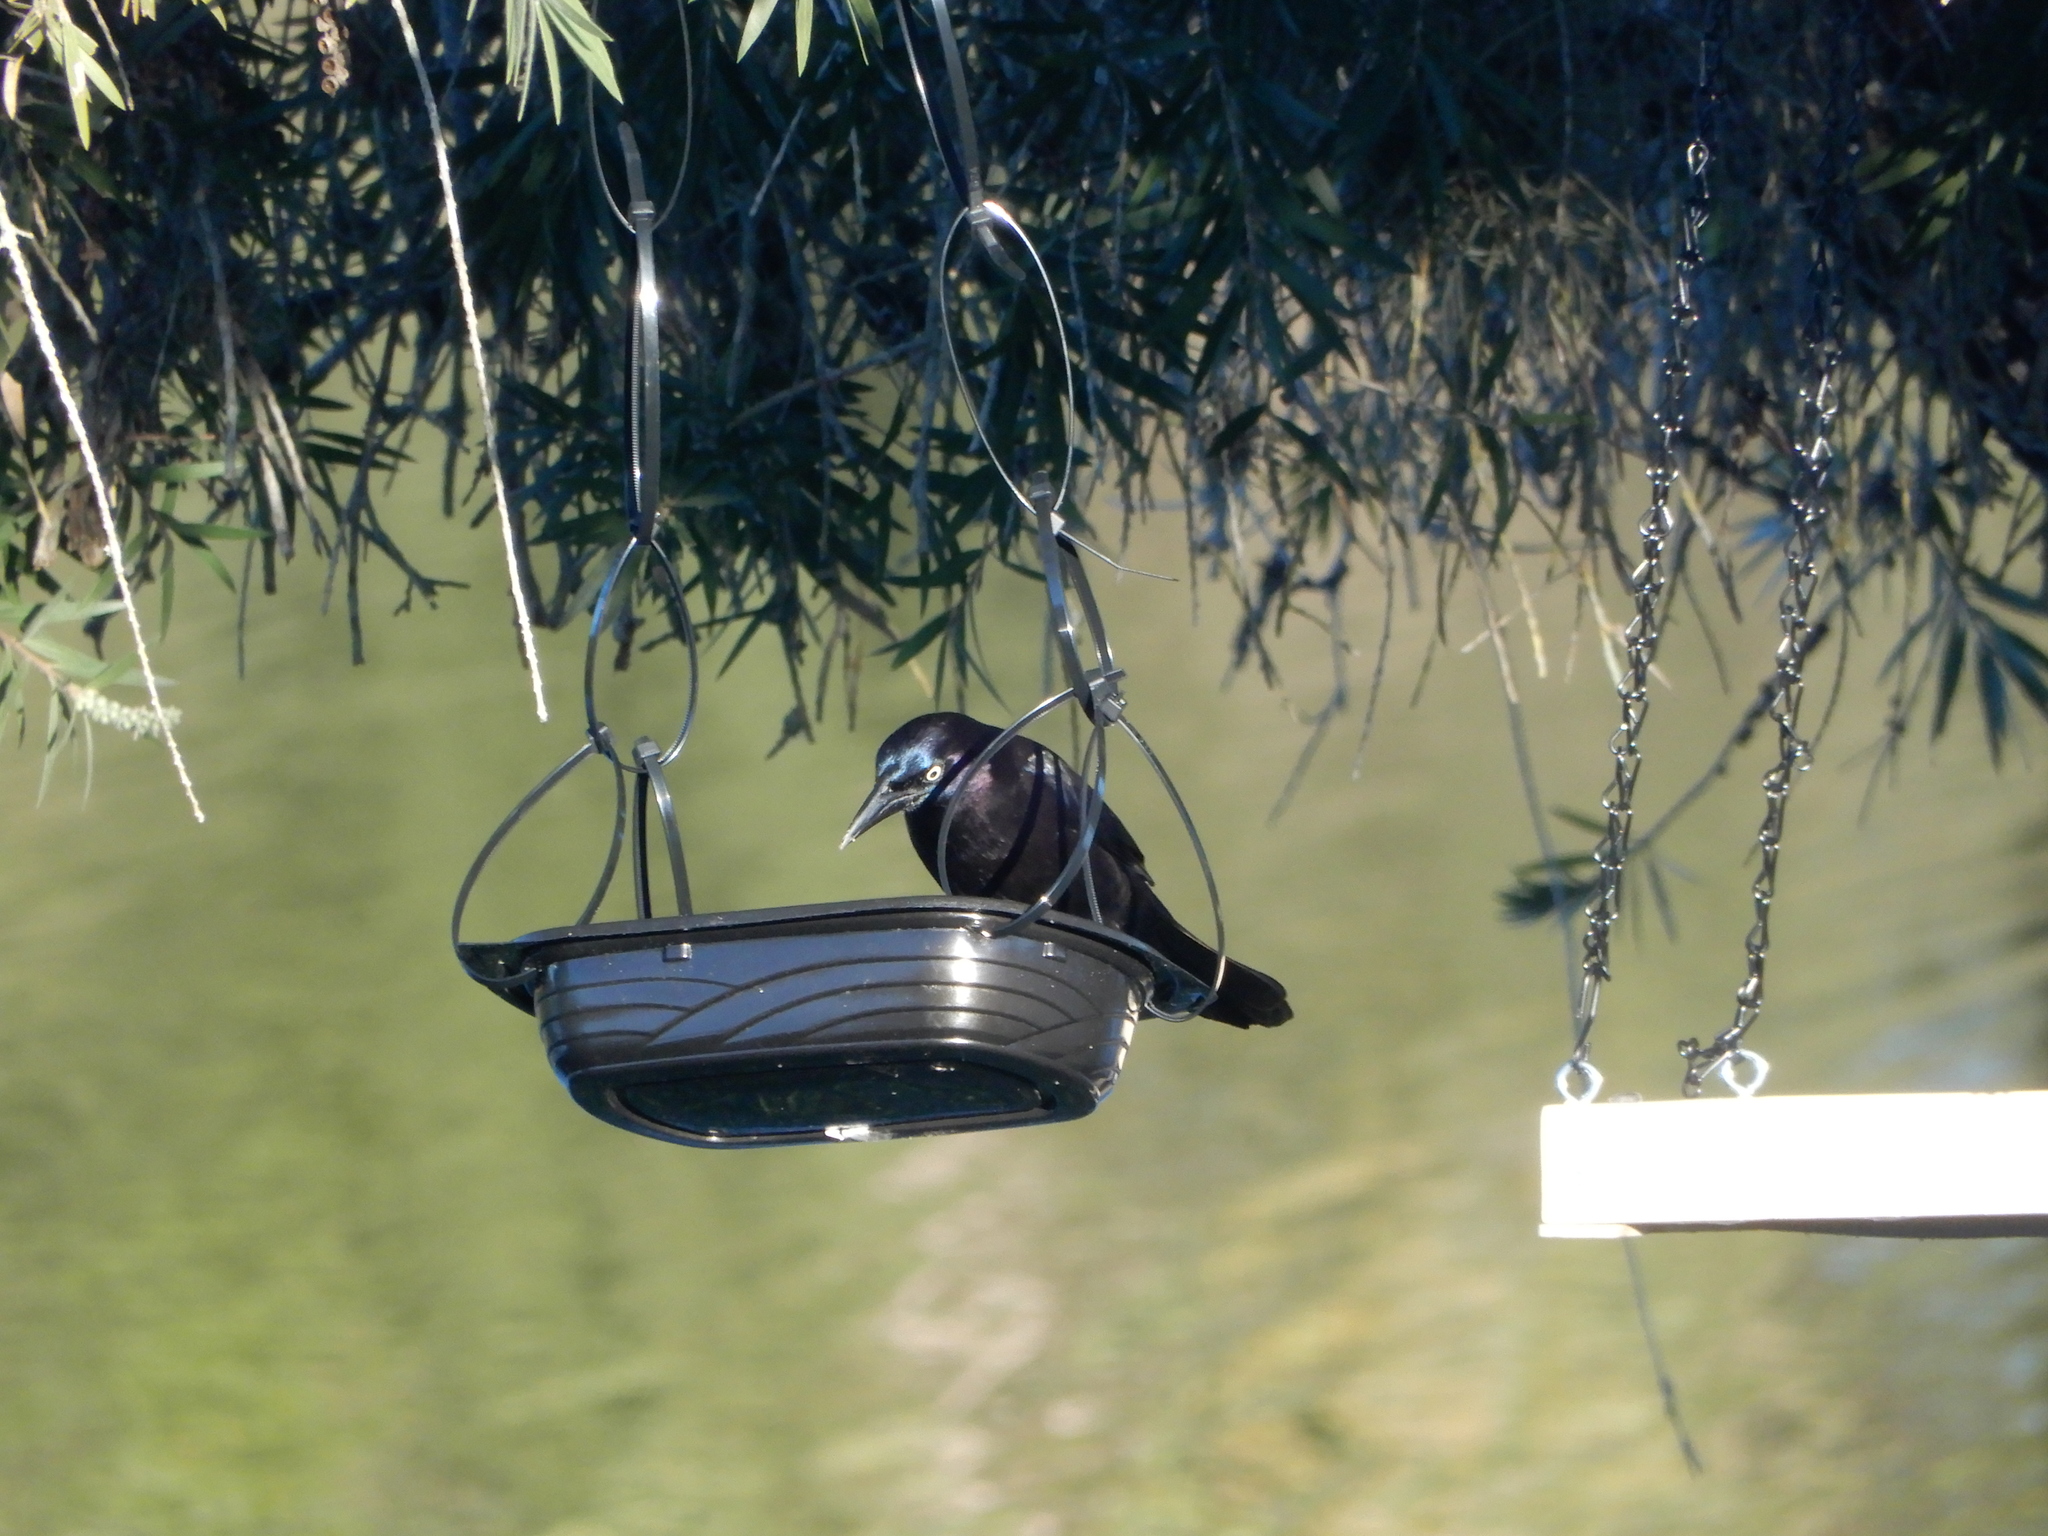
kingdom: Animalia
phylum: Chordata
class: Aves
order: Passeriformes
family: Icteridae
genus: Quiscalus
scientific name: Quiscalus quiscula
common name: Common grackle
